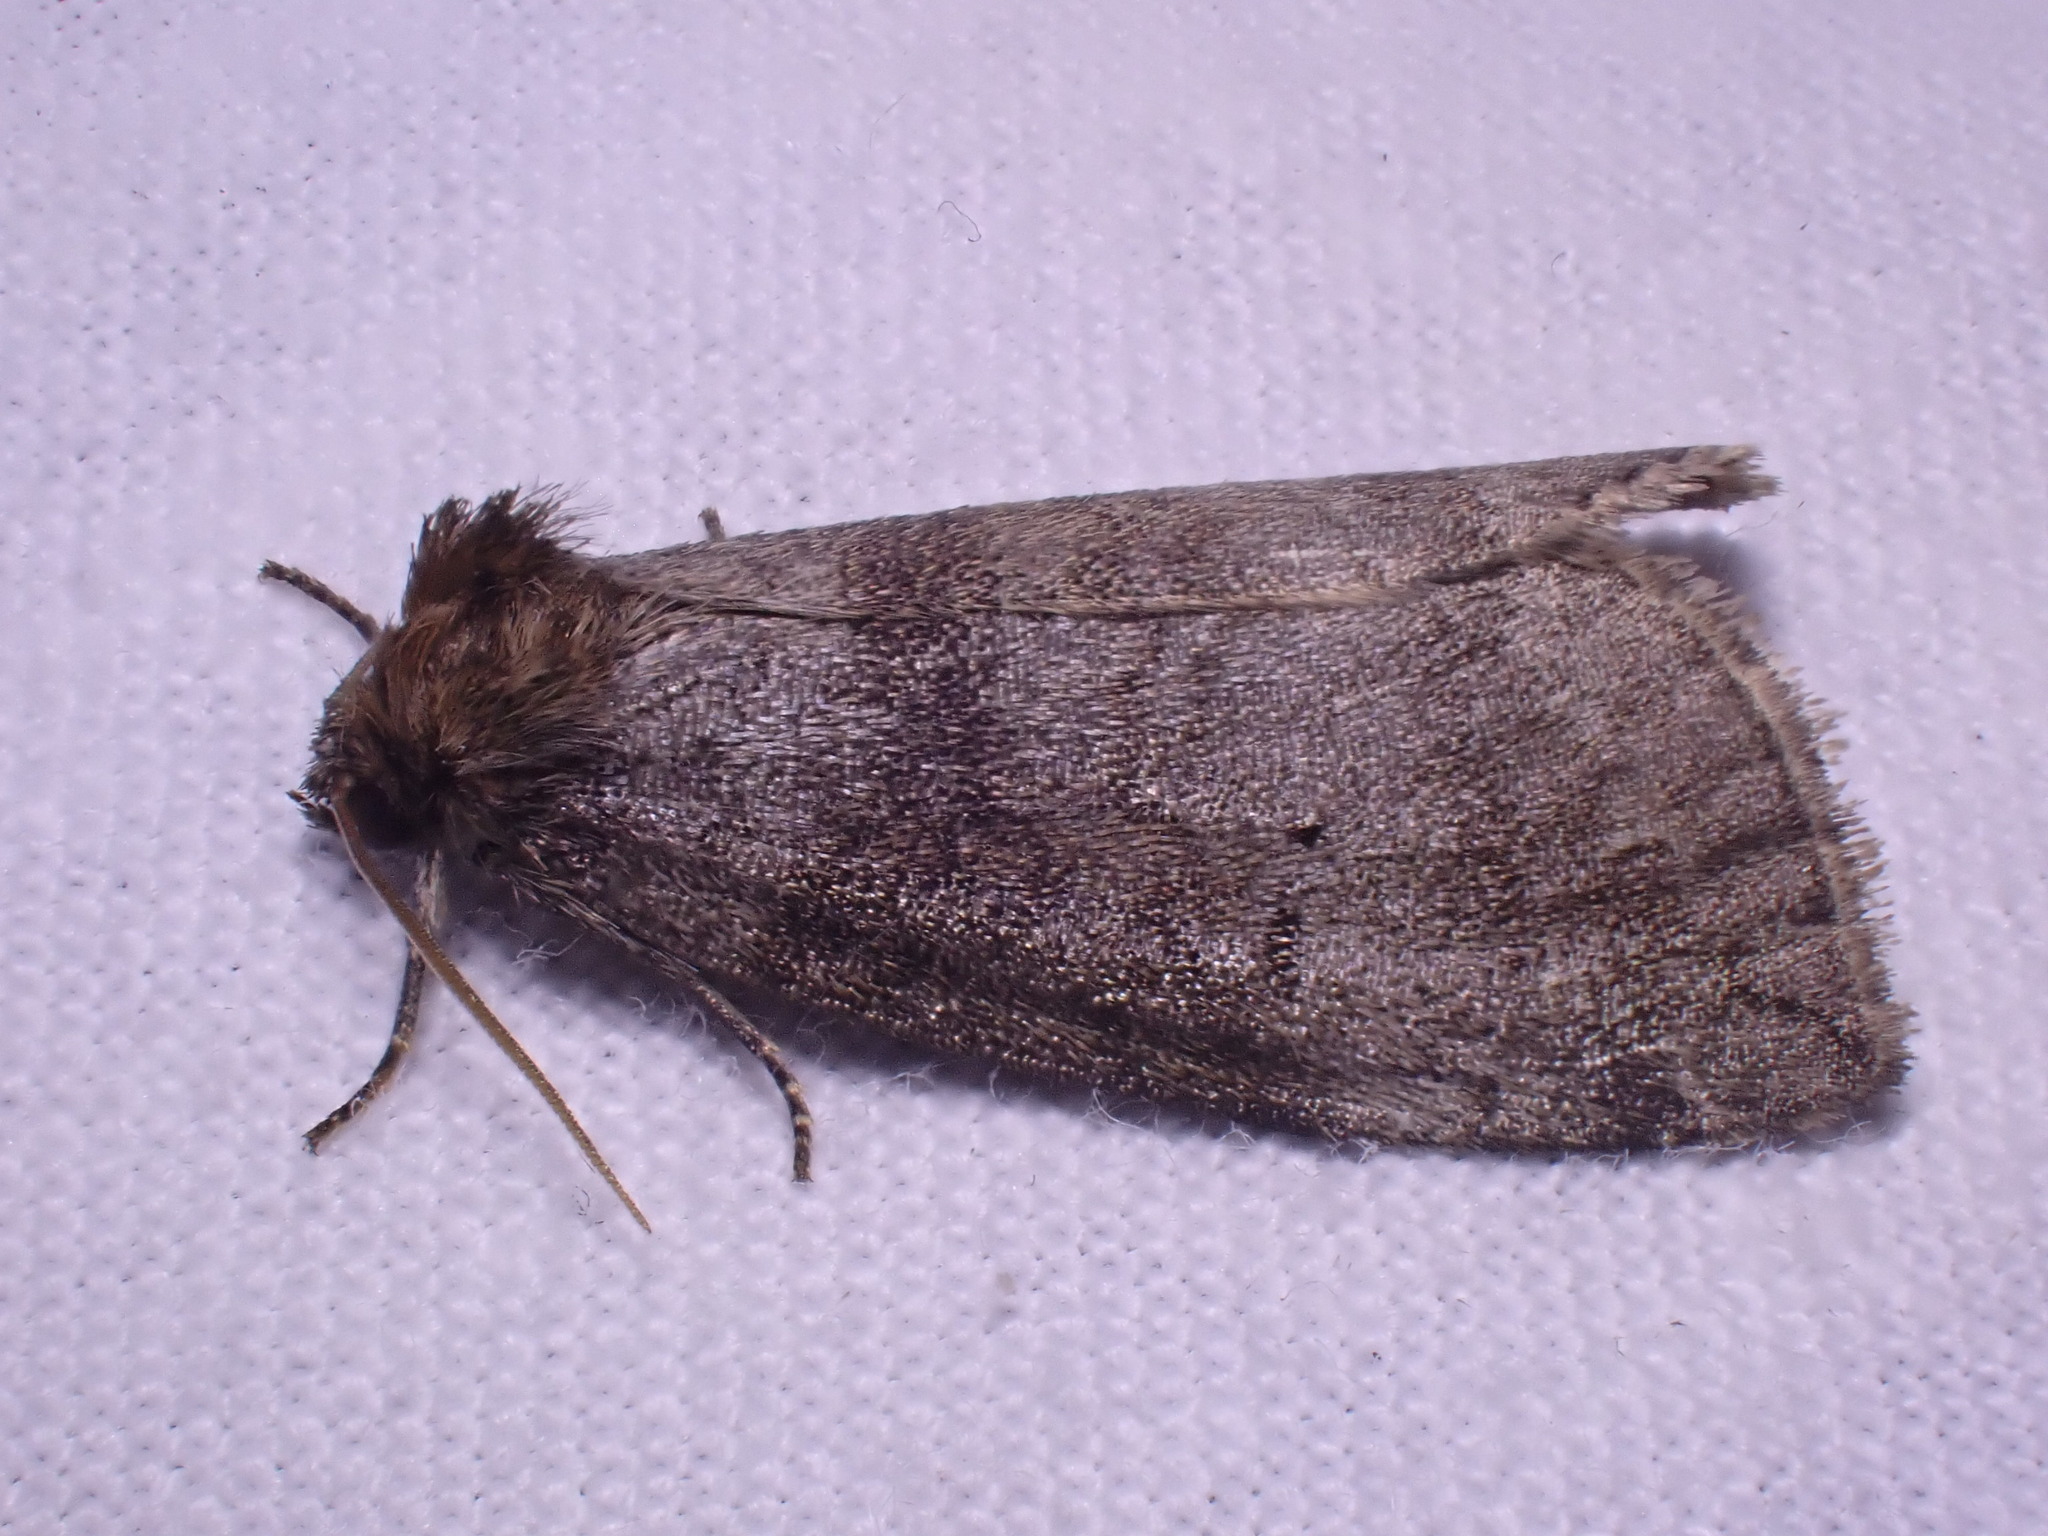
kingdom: Animalia
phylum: Arthropoda
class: Insecta
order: Lepidoptera
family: Drepanidae
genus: Ochropacha
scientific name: Ochropacha duplaris
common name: Common lutestring
